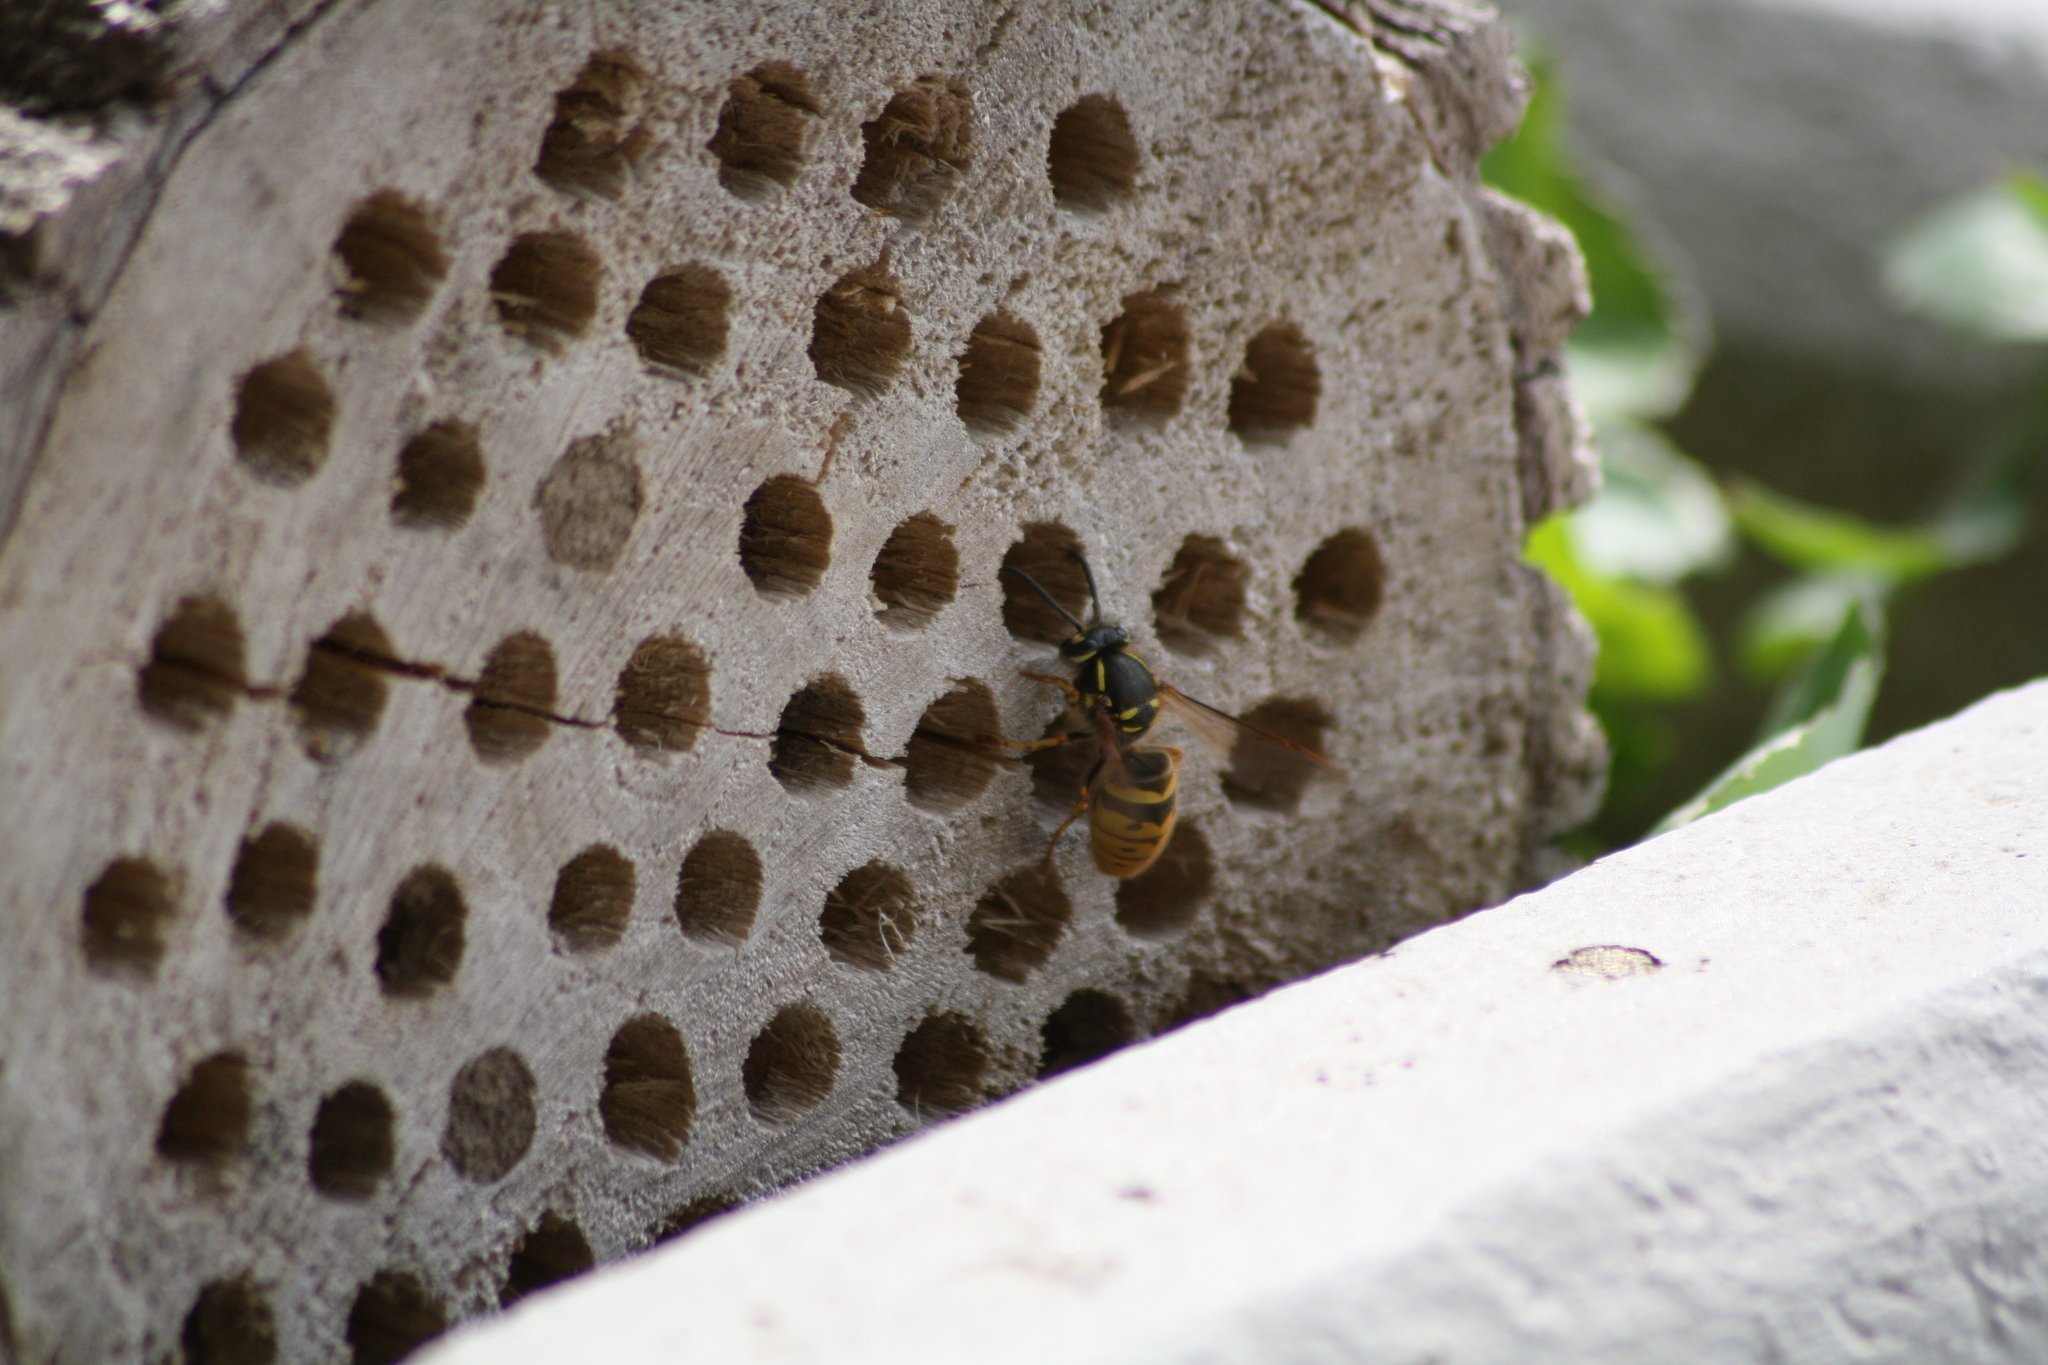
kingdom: Animalia
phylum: Arthropoda
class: Insecta
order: Hymenoptera
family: Vespidae
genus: Vespula
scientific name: Vespula vulgaris
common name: Common wasp
